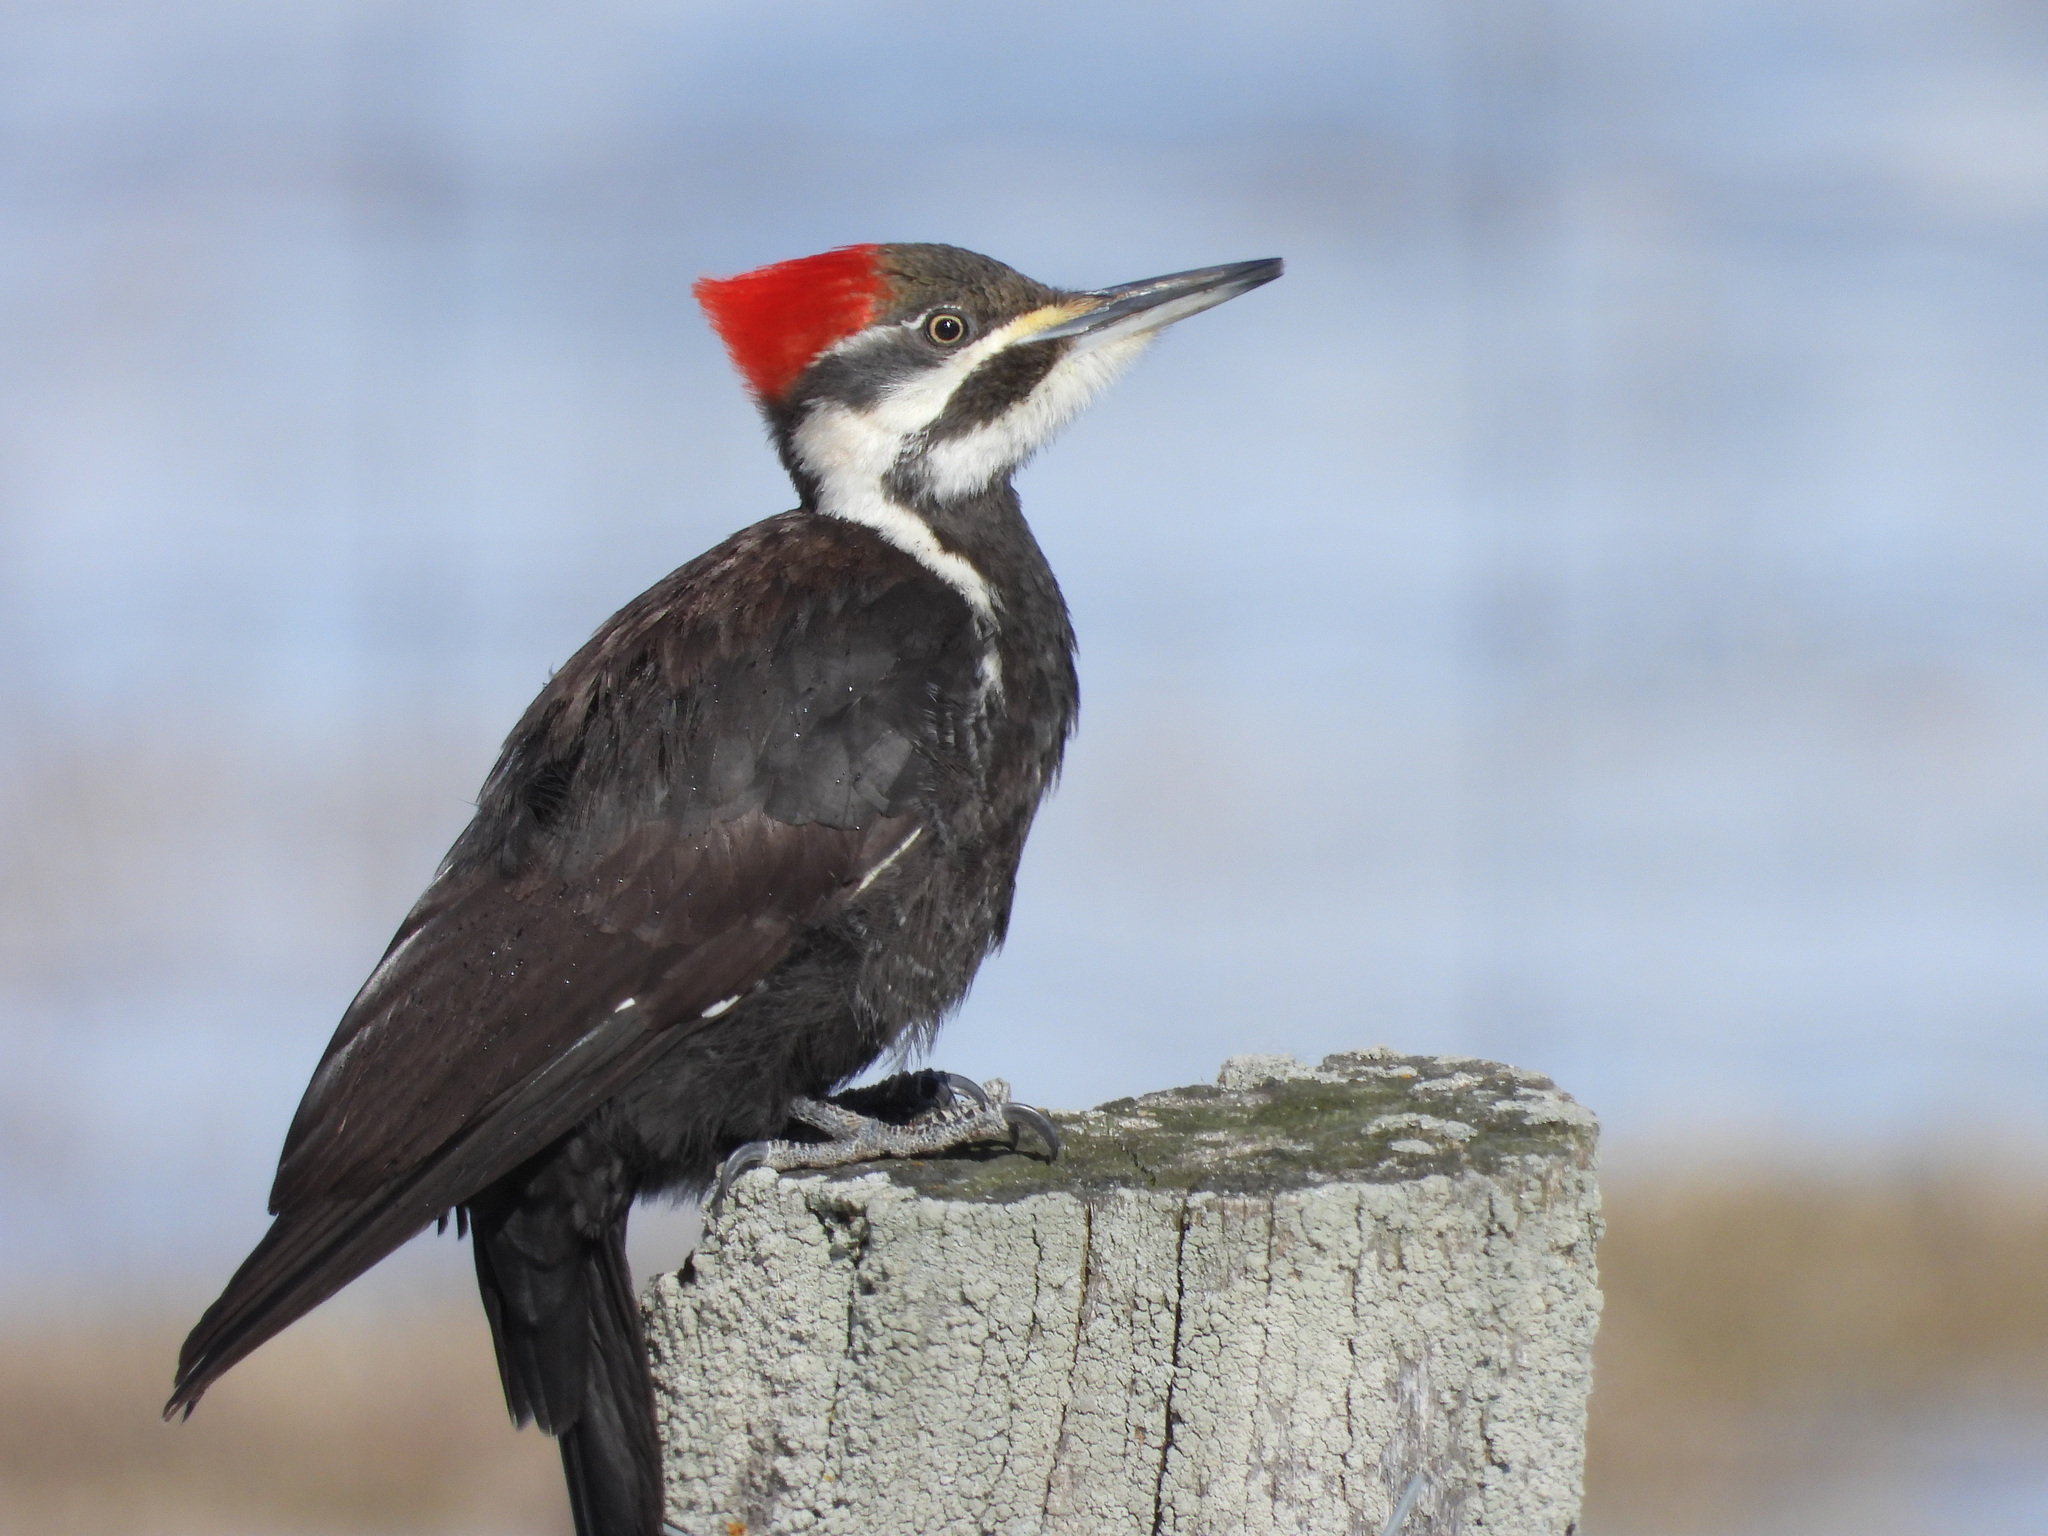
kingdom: Animalia
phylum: Chordata
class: Aves
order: Piciformes
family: Picidae
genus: Dryocopus
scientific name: Dryocopus pileatus
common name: Pileated woodpecker
